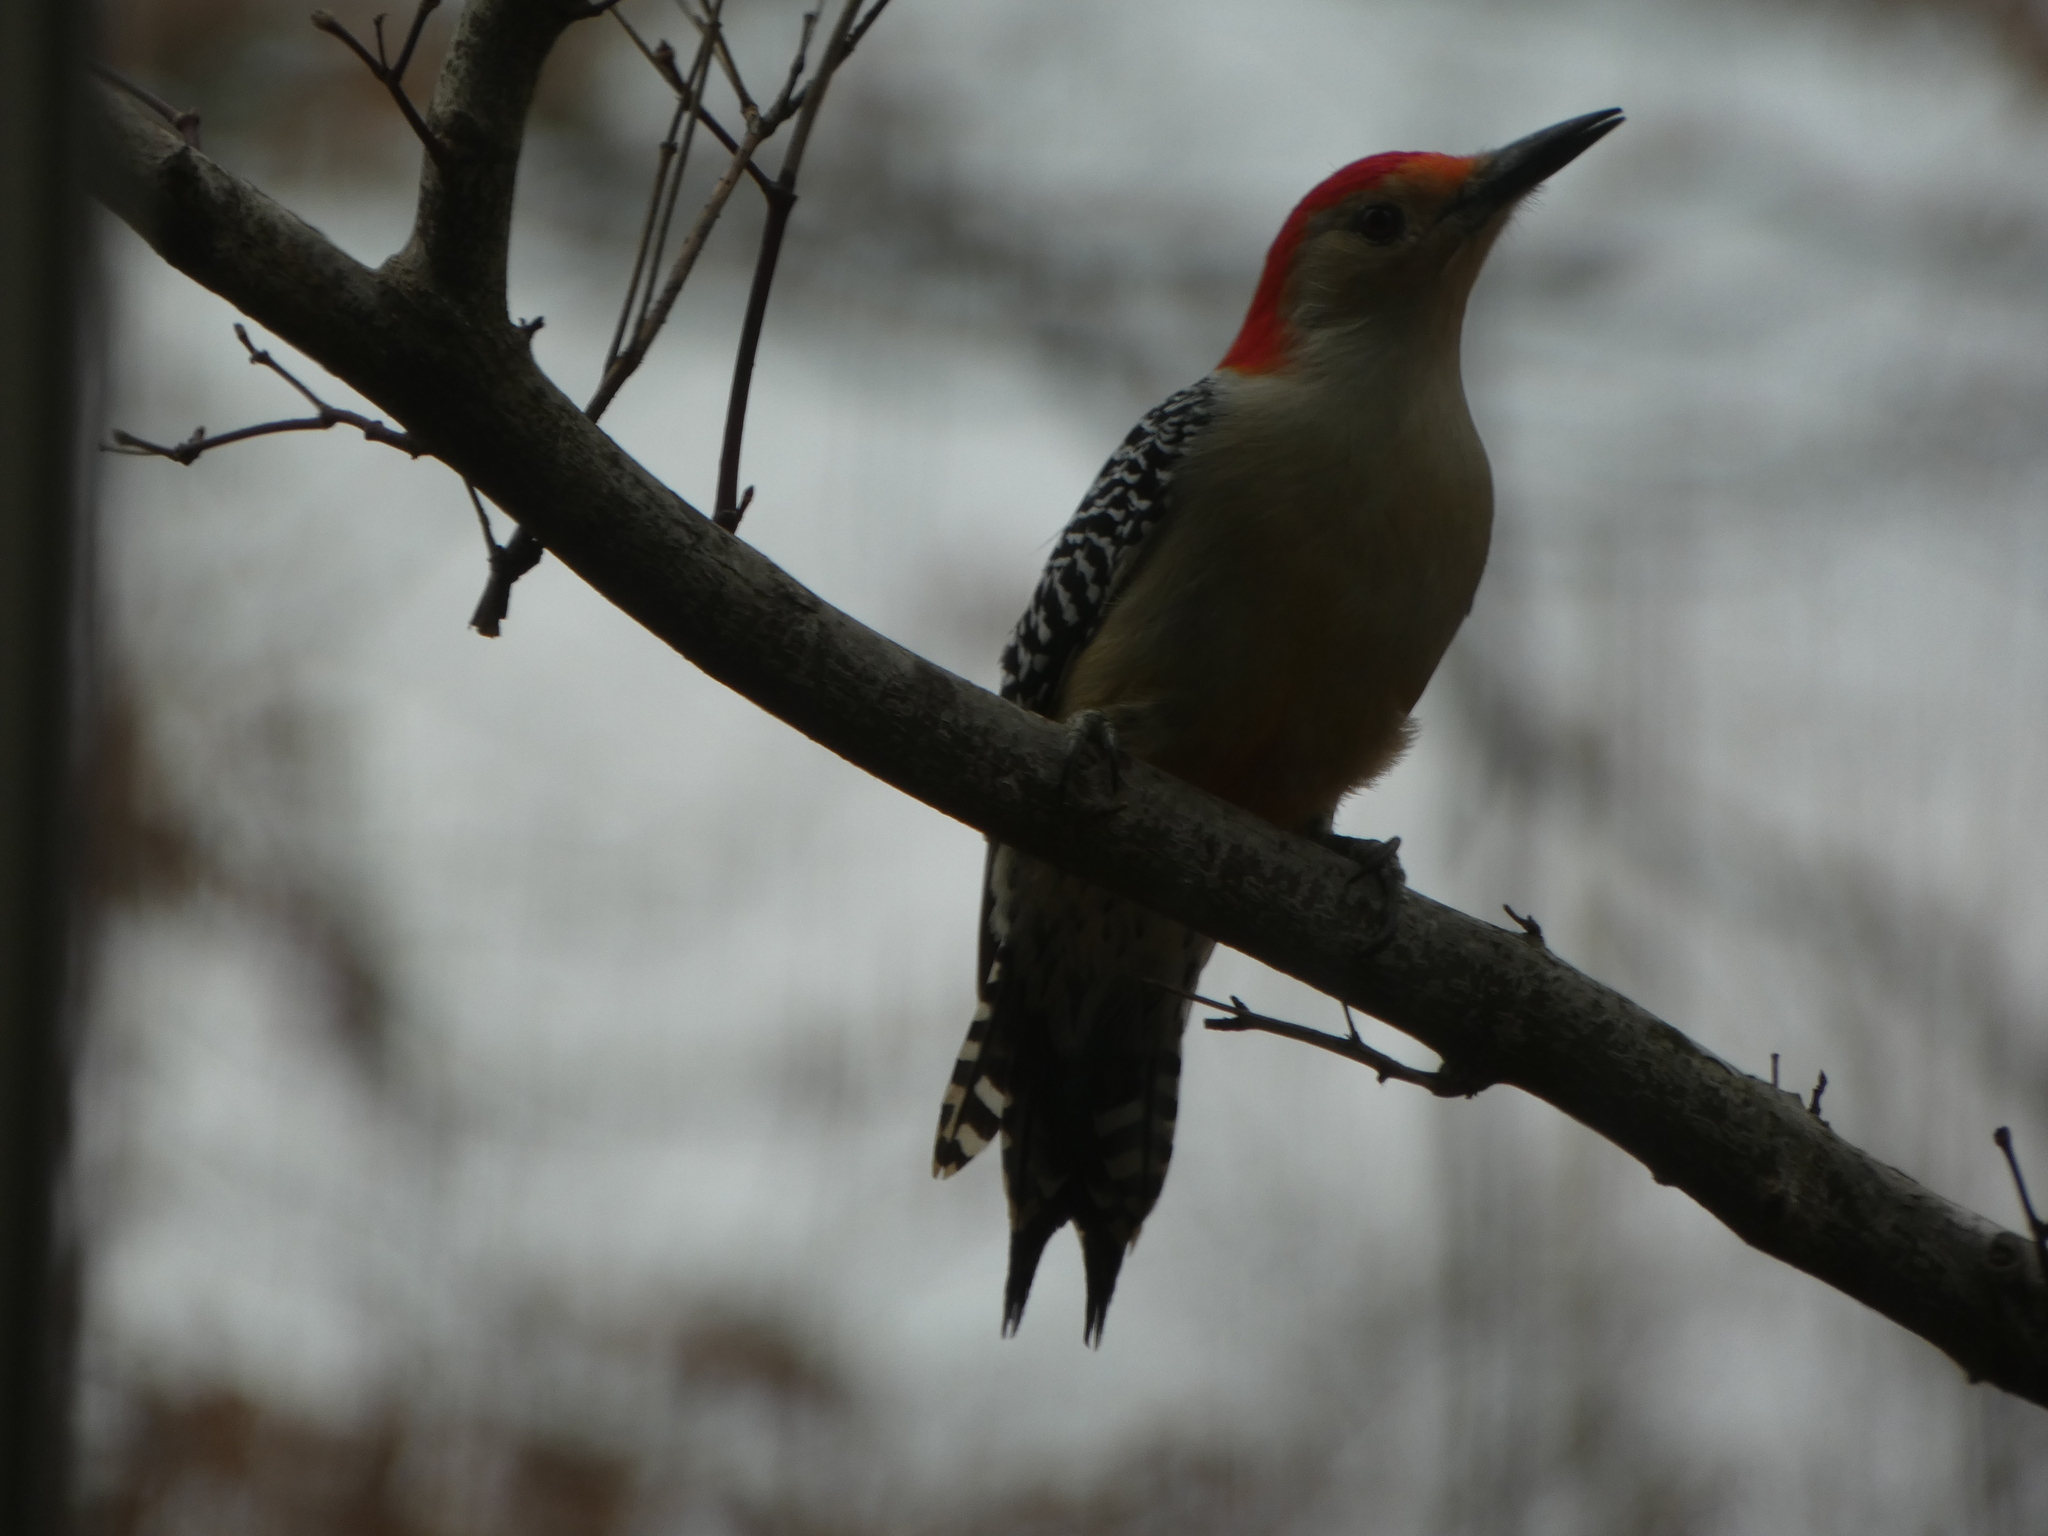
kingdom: Animalia
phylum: Chordata
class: Aves
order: Piciformes
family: Picidae
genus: Melanerpes
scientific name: Melanerpes carolinus
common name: Red-bellied woodpecker
